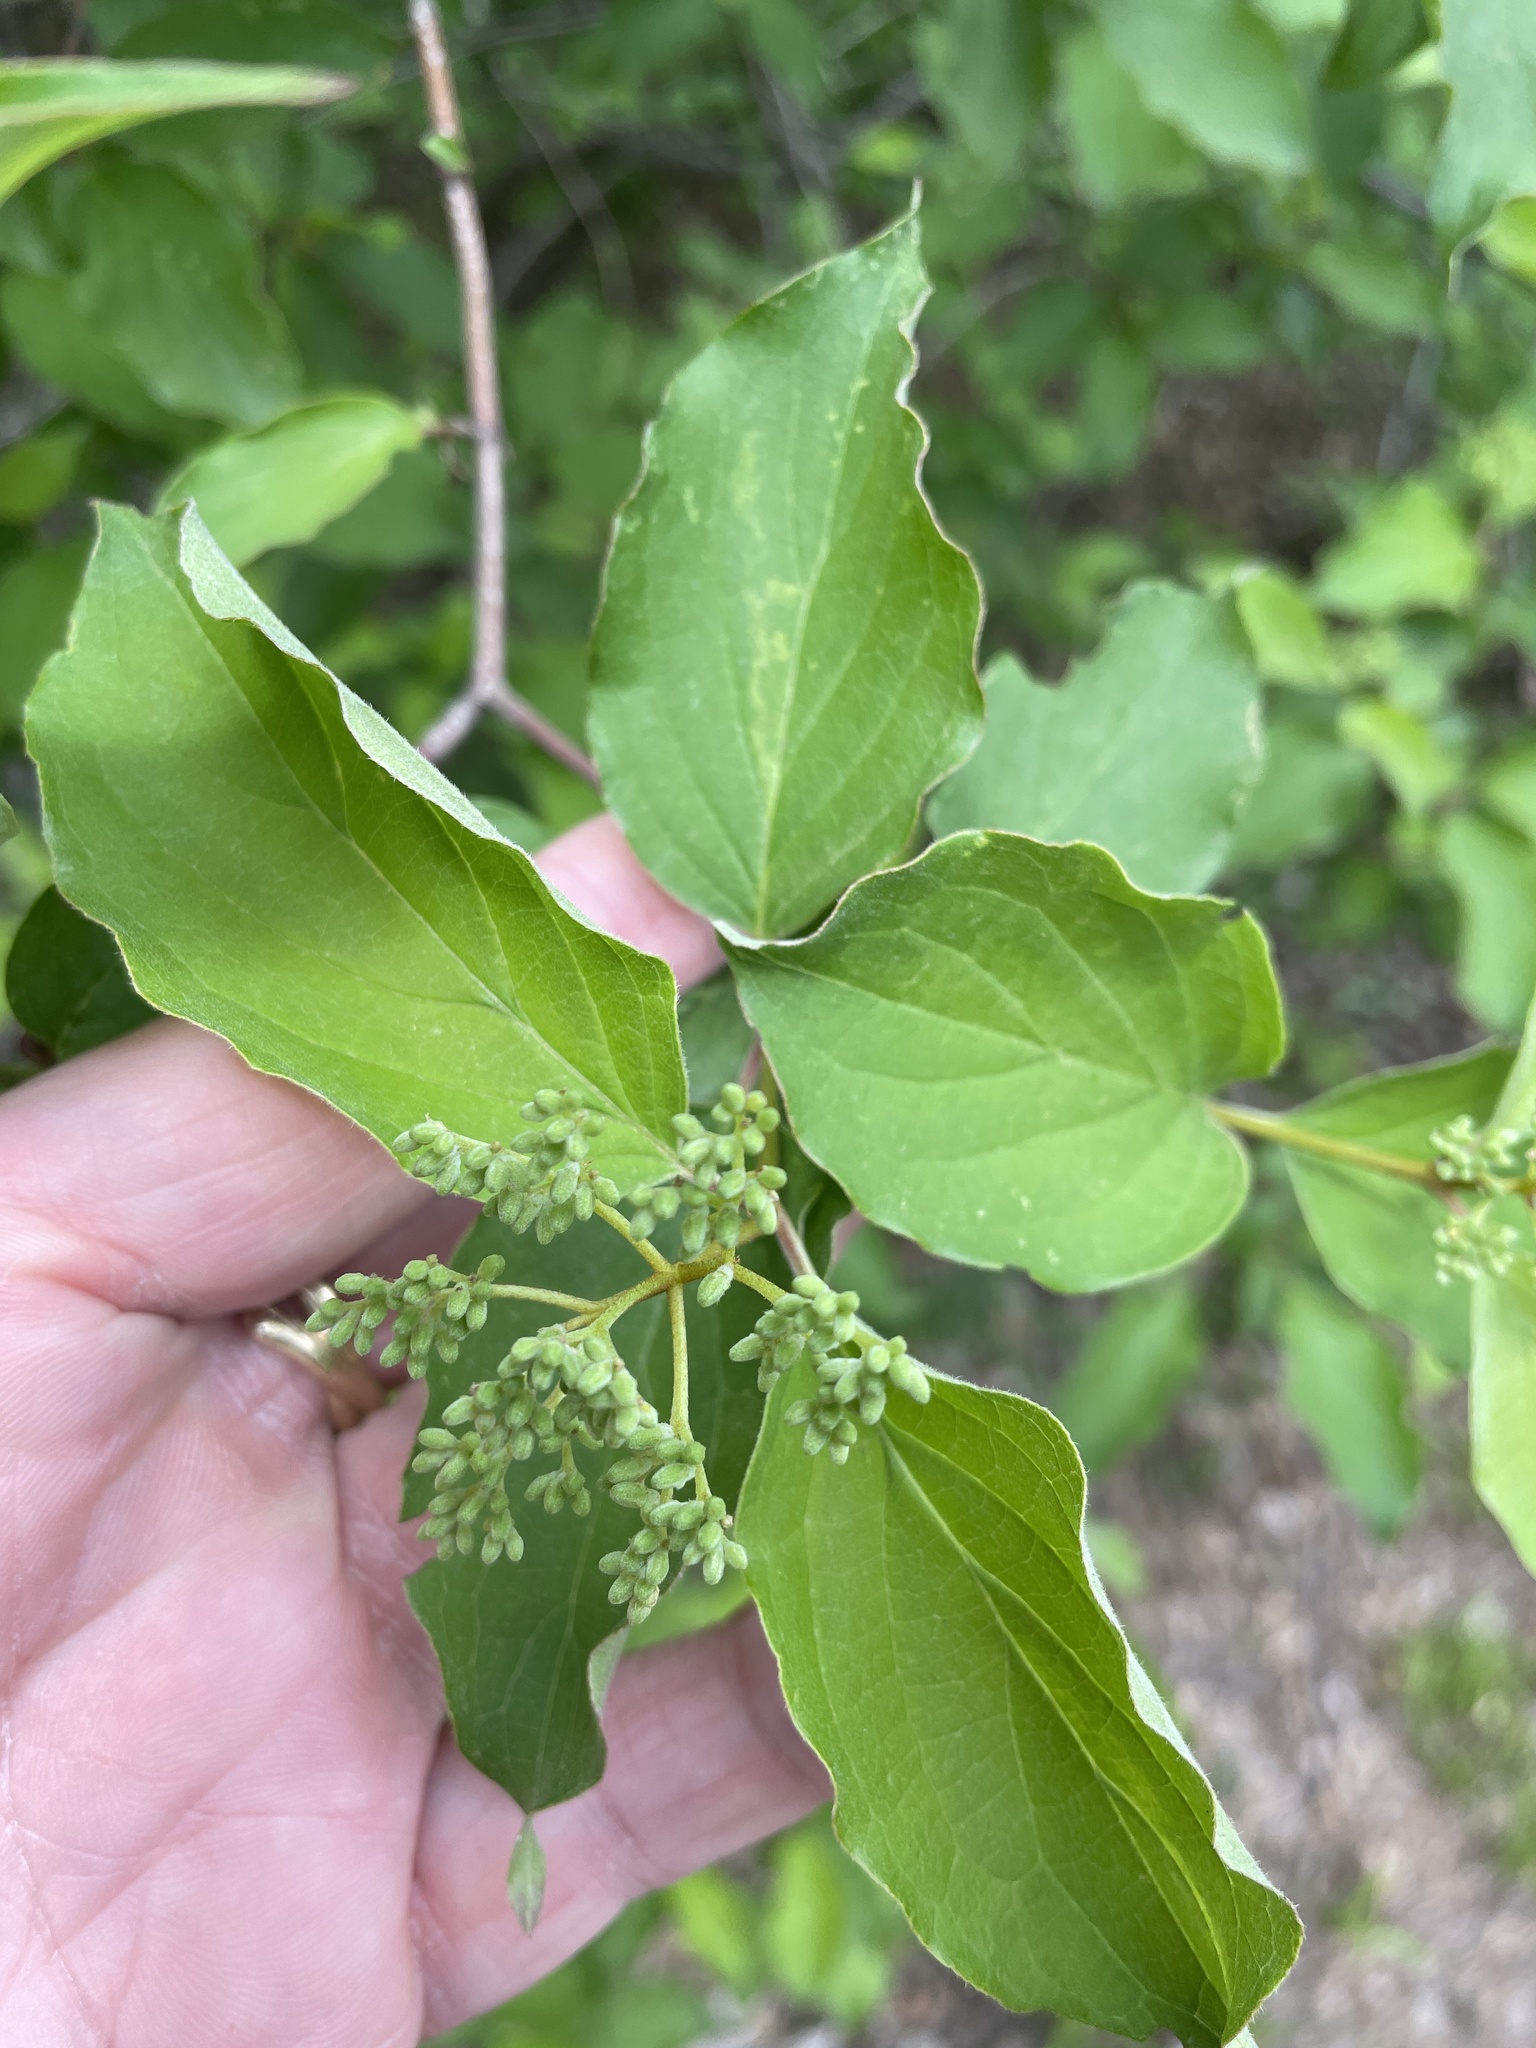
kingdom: Plantae
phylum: Tracheophyta
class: Magnoliopsida
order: Cornales
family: Cornaceae
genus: Cornus
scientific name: Cornus drummondii
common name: Rough-leaf dogwood
